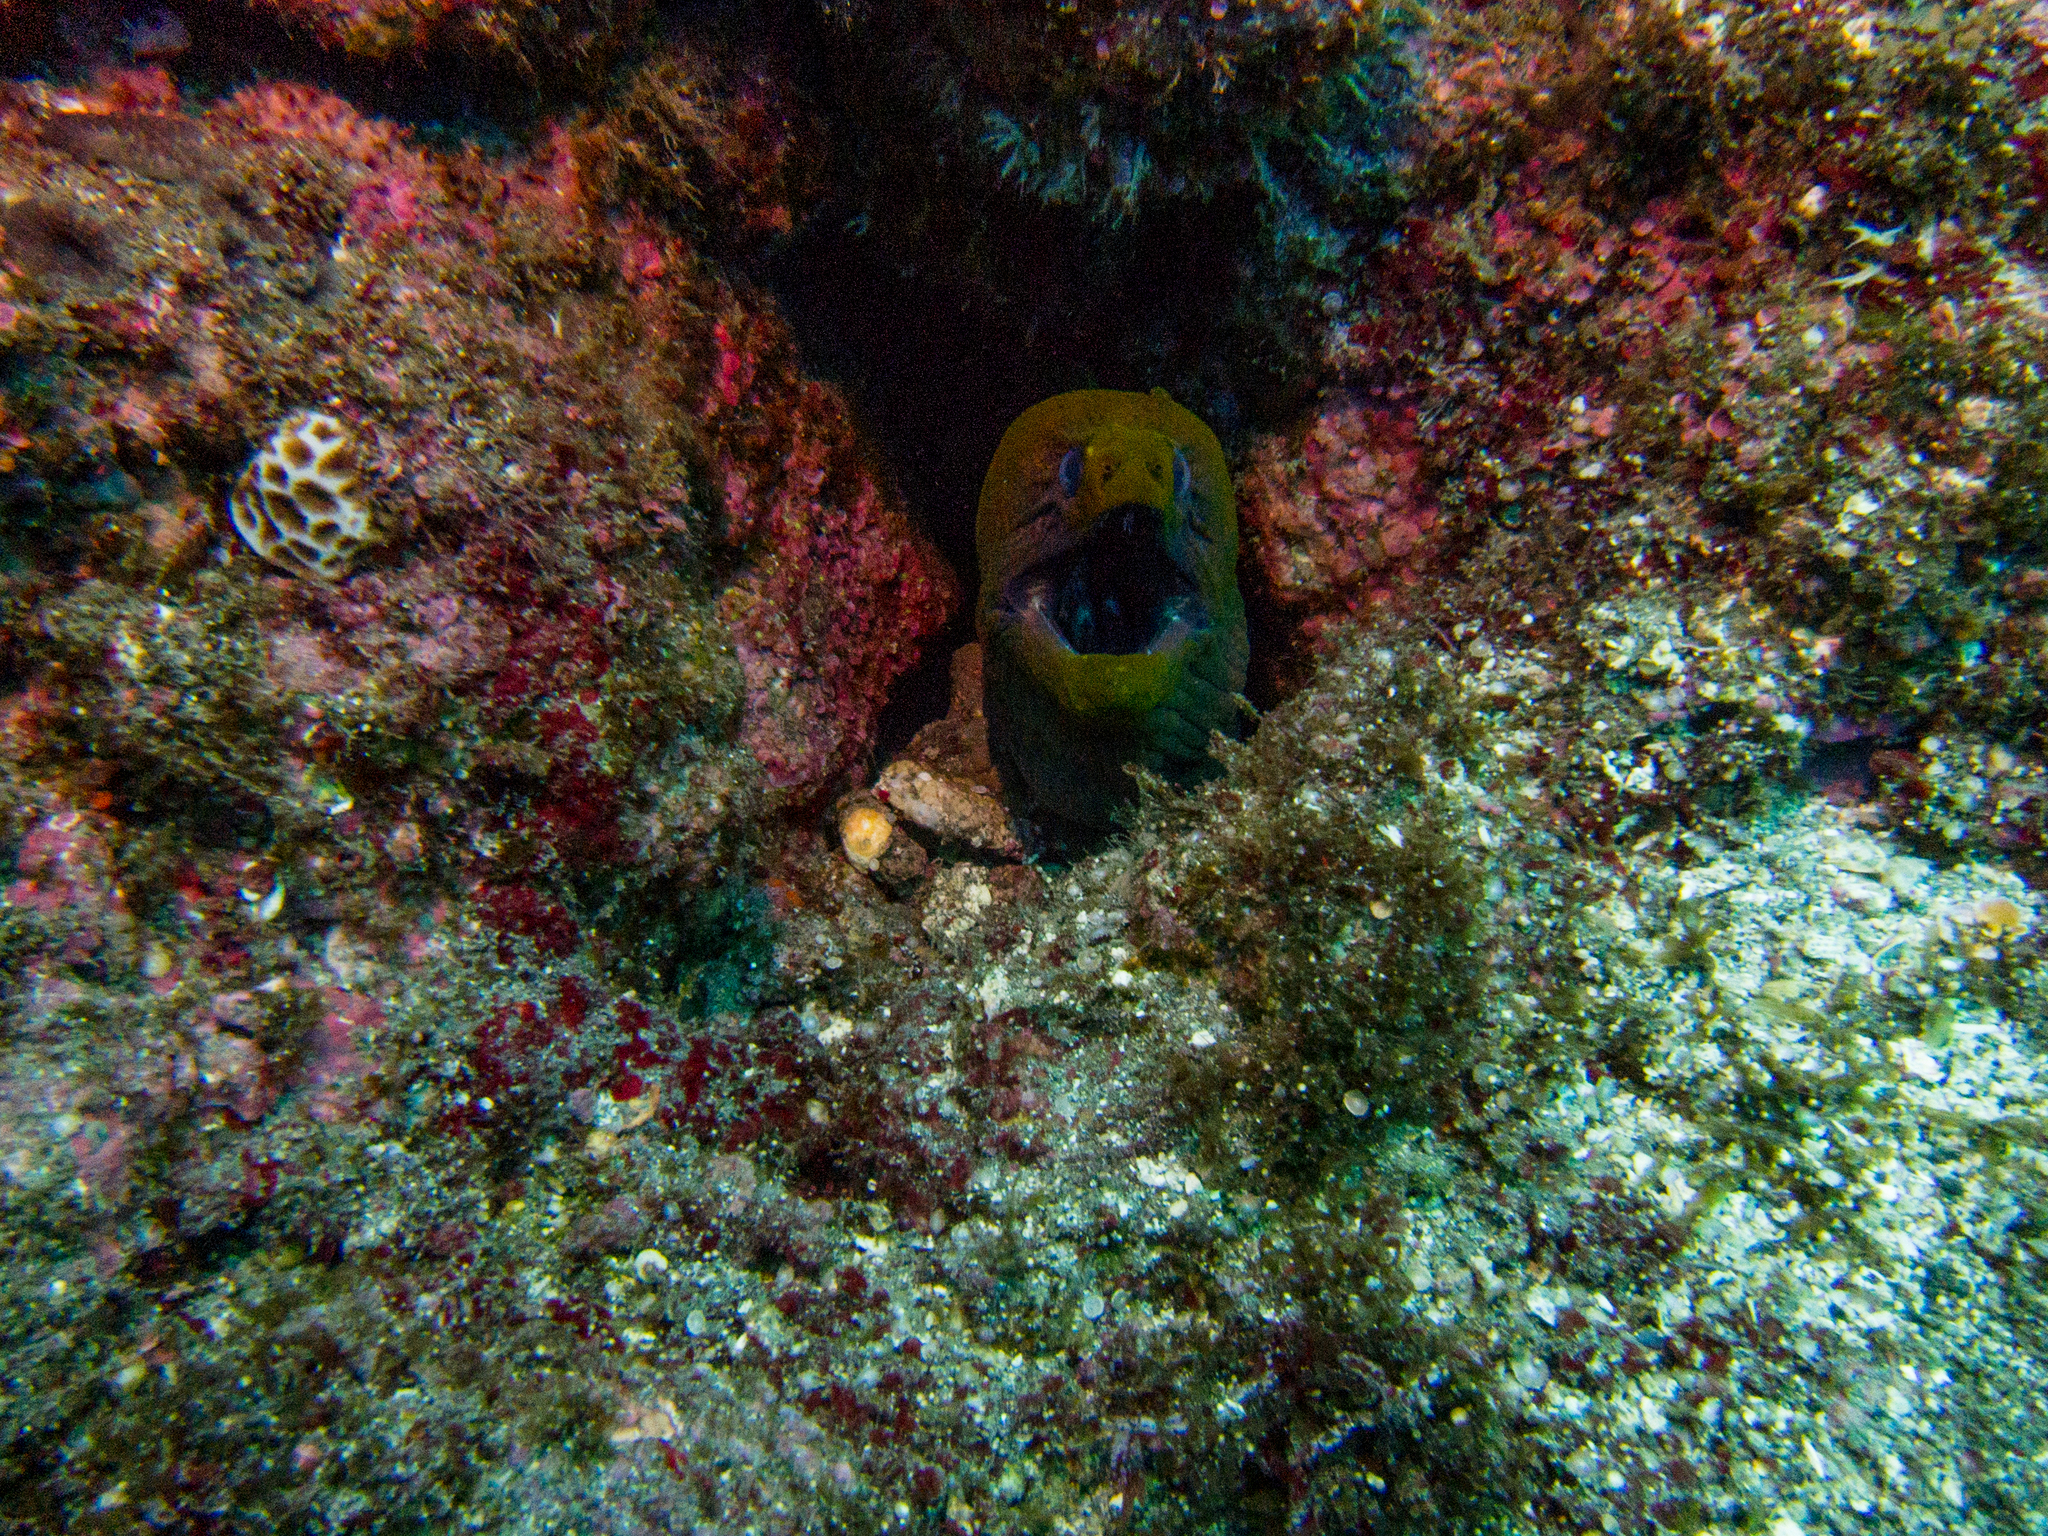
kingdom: Animalia
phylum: Chordata
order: Anguilliformes
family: Muraenidae
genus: Gymnothorax
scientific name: Gymnothorax javanicus
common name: Giant moray
